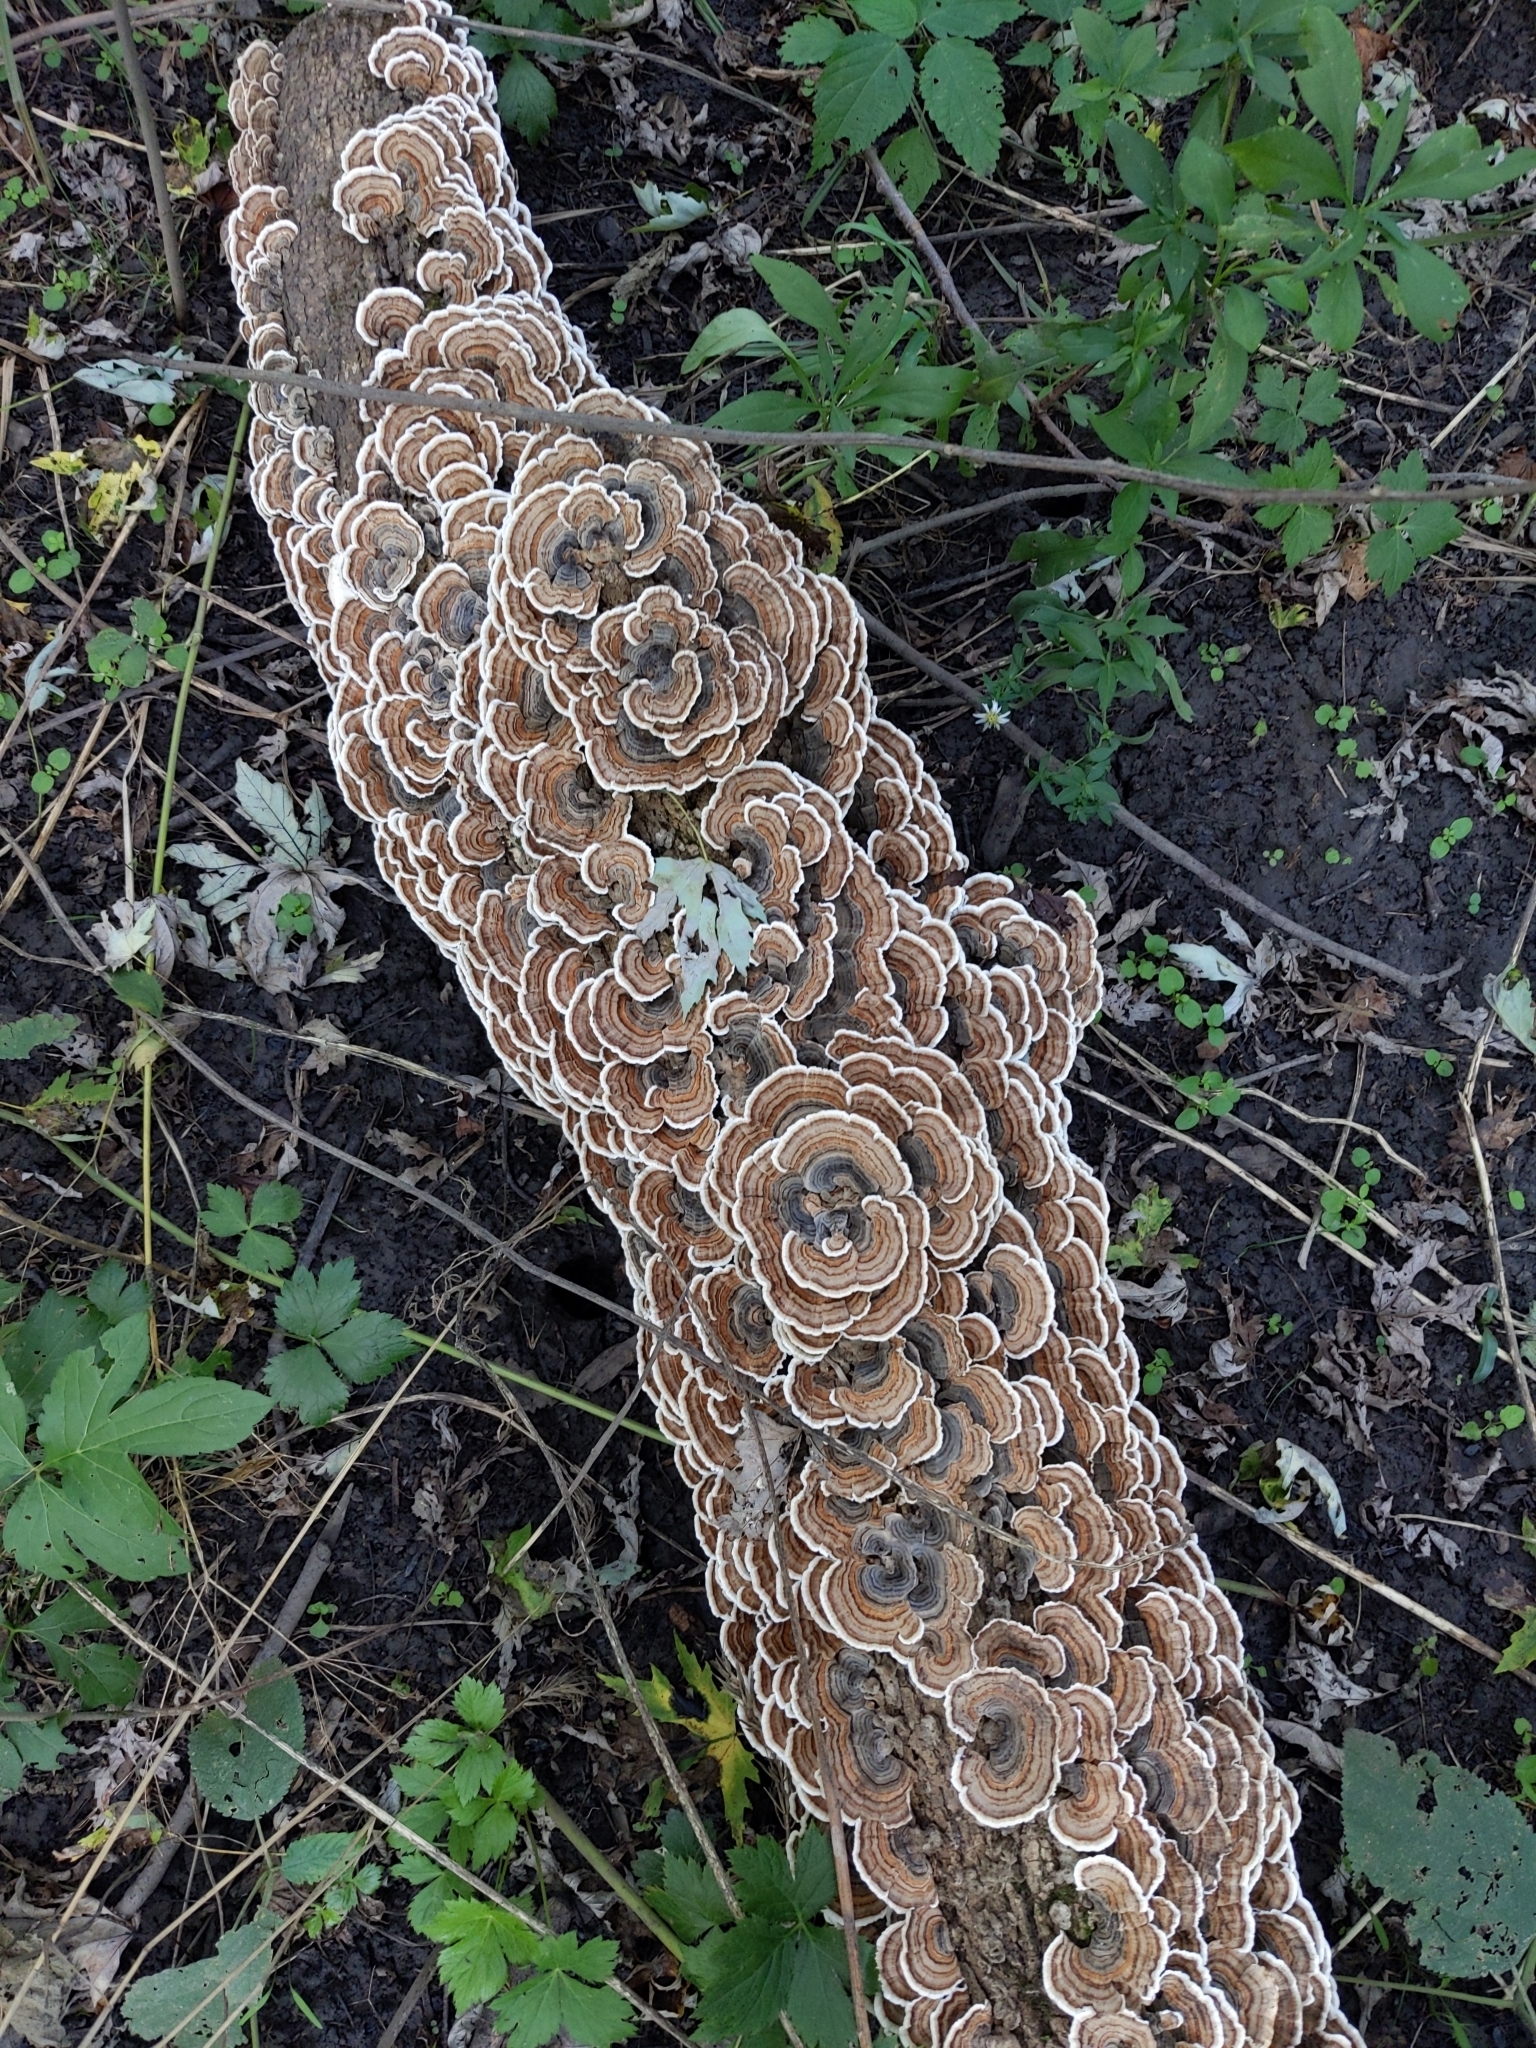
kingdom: Fungi
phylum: Basidiomycota
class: Agaricomycetes
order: Polyporales
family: Polyporaceae
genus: Trametes
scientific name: Trametes versicolor
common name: Turkeytail
